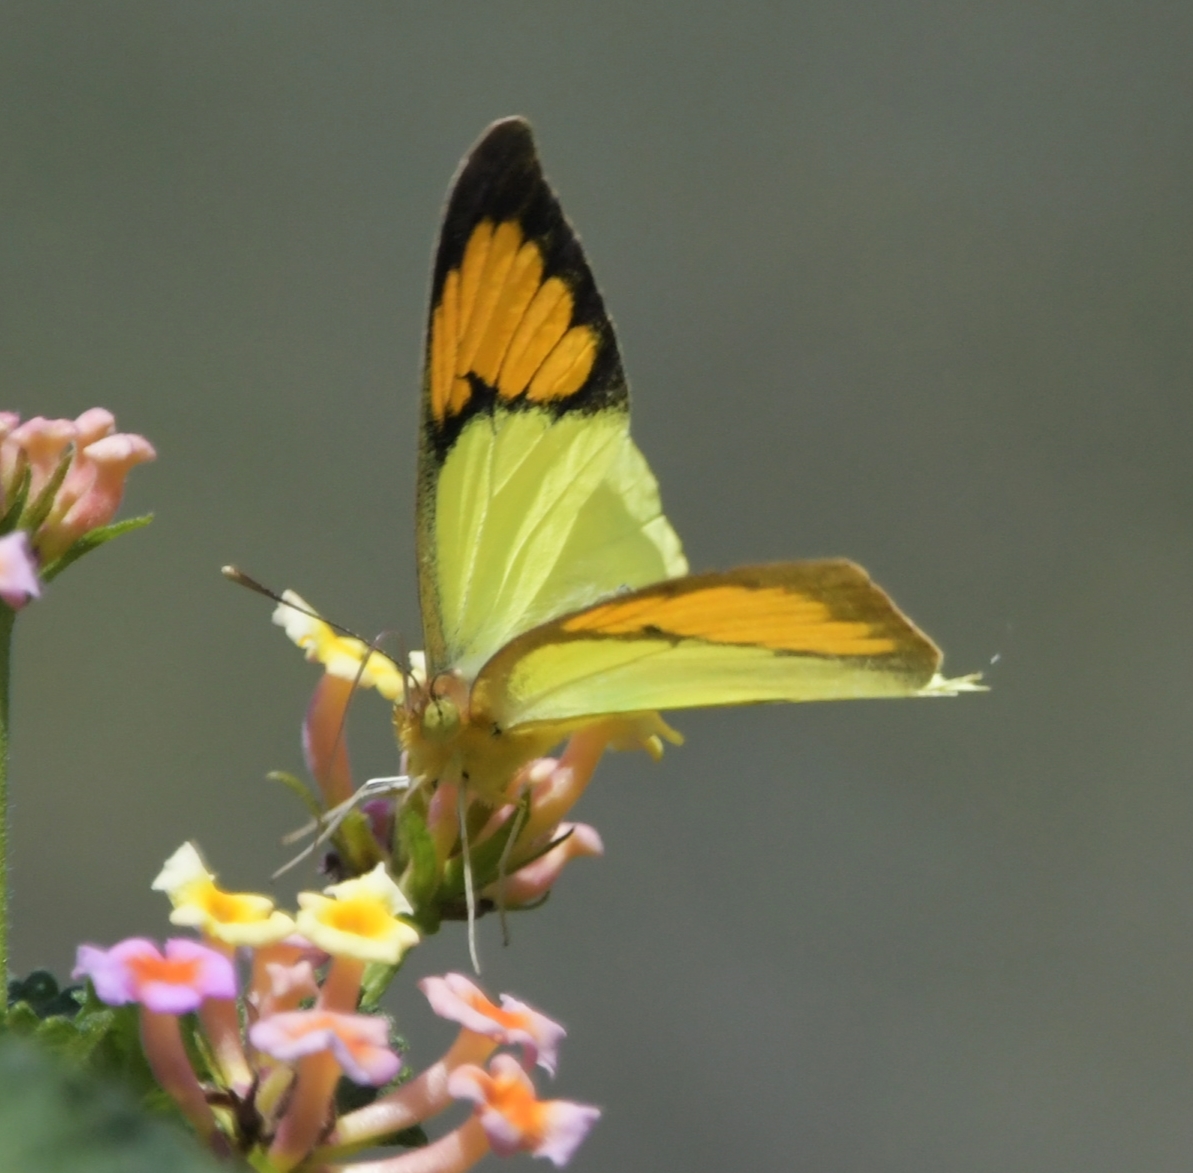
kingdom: Animalia
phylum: Arthropoda
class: Insecta
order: Lepidoptera
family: Pieridae
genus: Ixias
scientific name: Ixias pyrene
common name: Yellow orange tip
